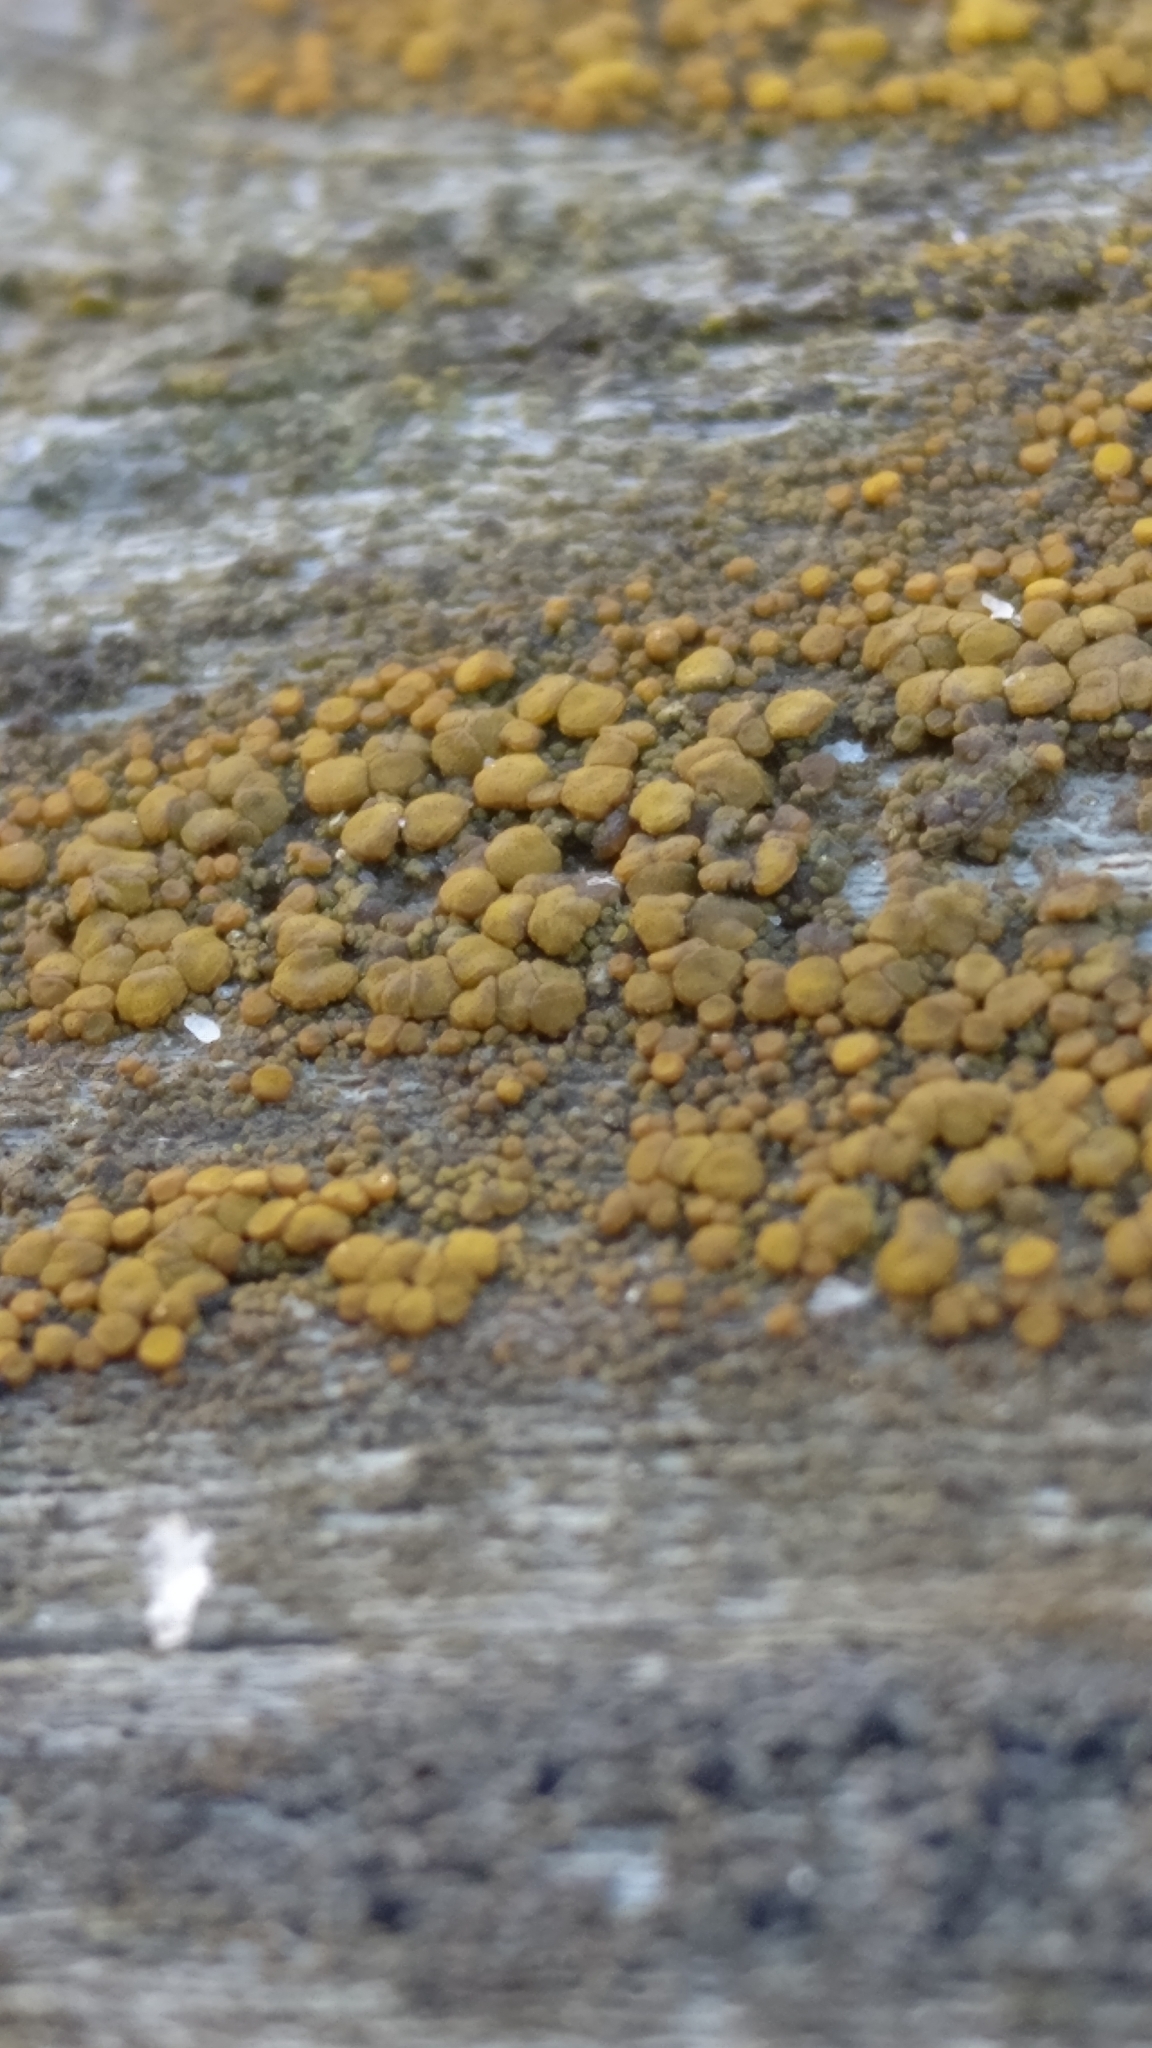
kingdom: Fungi
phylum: Ascomycota
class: Candelariomycetes
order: Candelariales
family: Candelariaceae
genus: Candelariella
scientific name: Candelariella vitellina
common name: Common goldspeck
